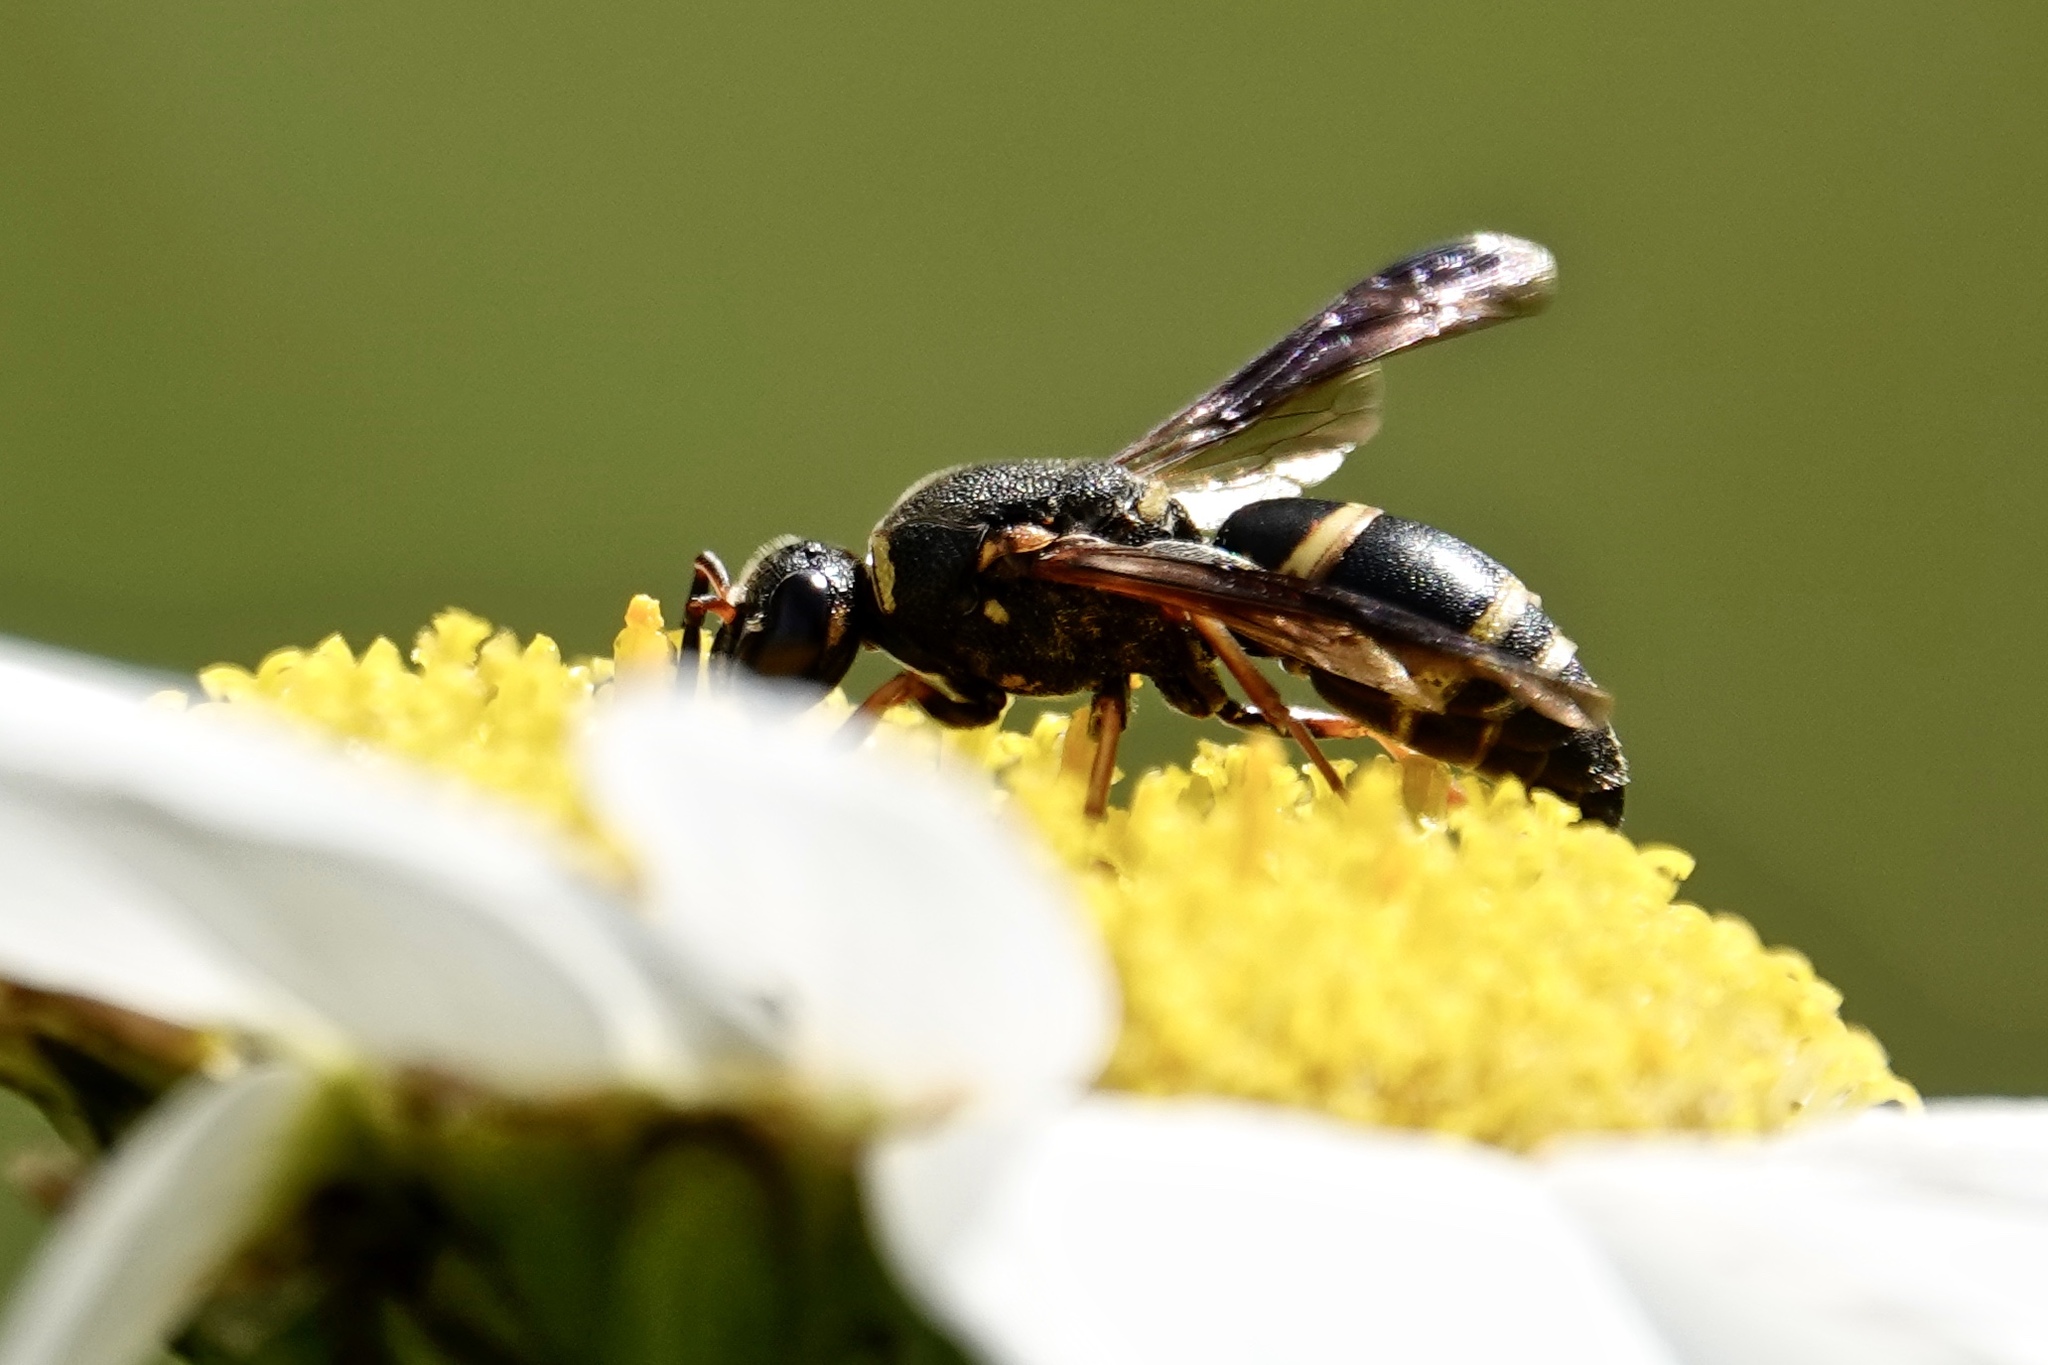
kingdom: Animalia
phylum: Arthropoda
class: Insecta
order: Hymenoptera
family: Eumenidae
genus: Euodynerus
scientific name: Euodynerus hidalgo
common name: Wasp
